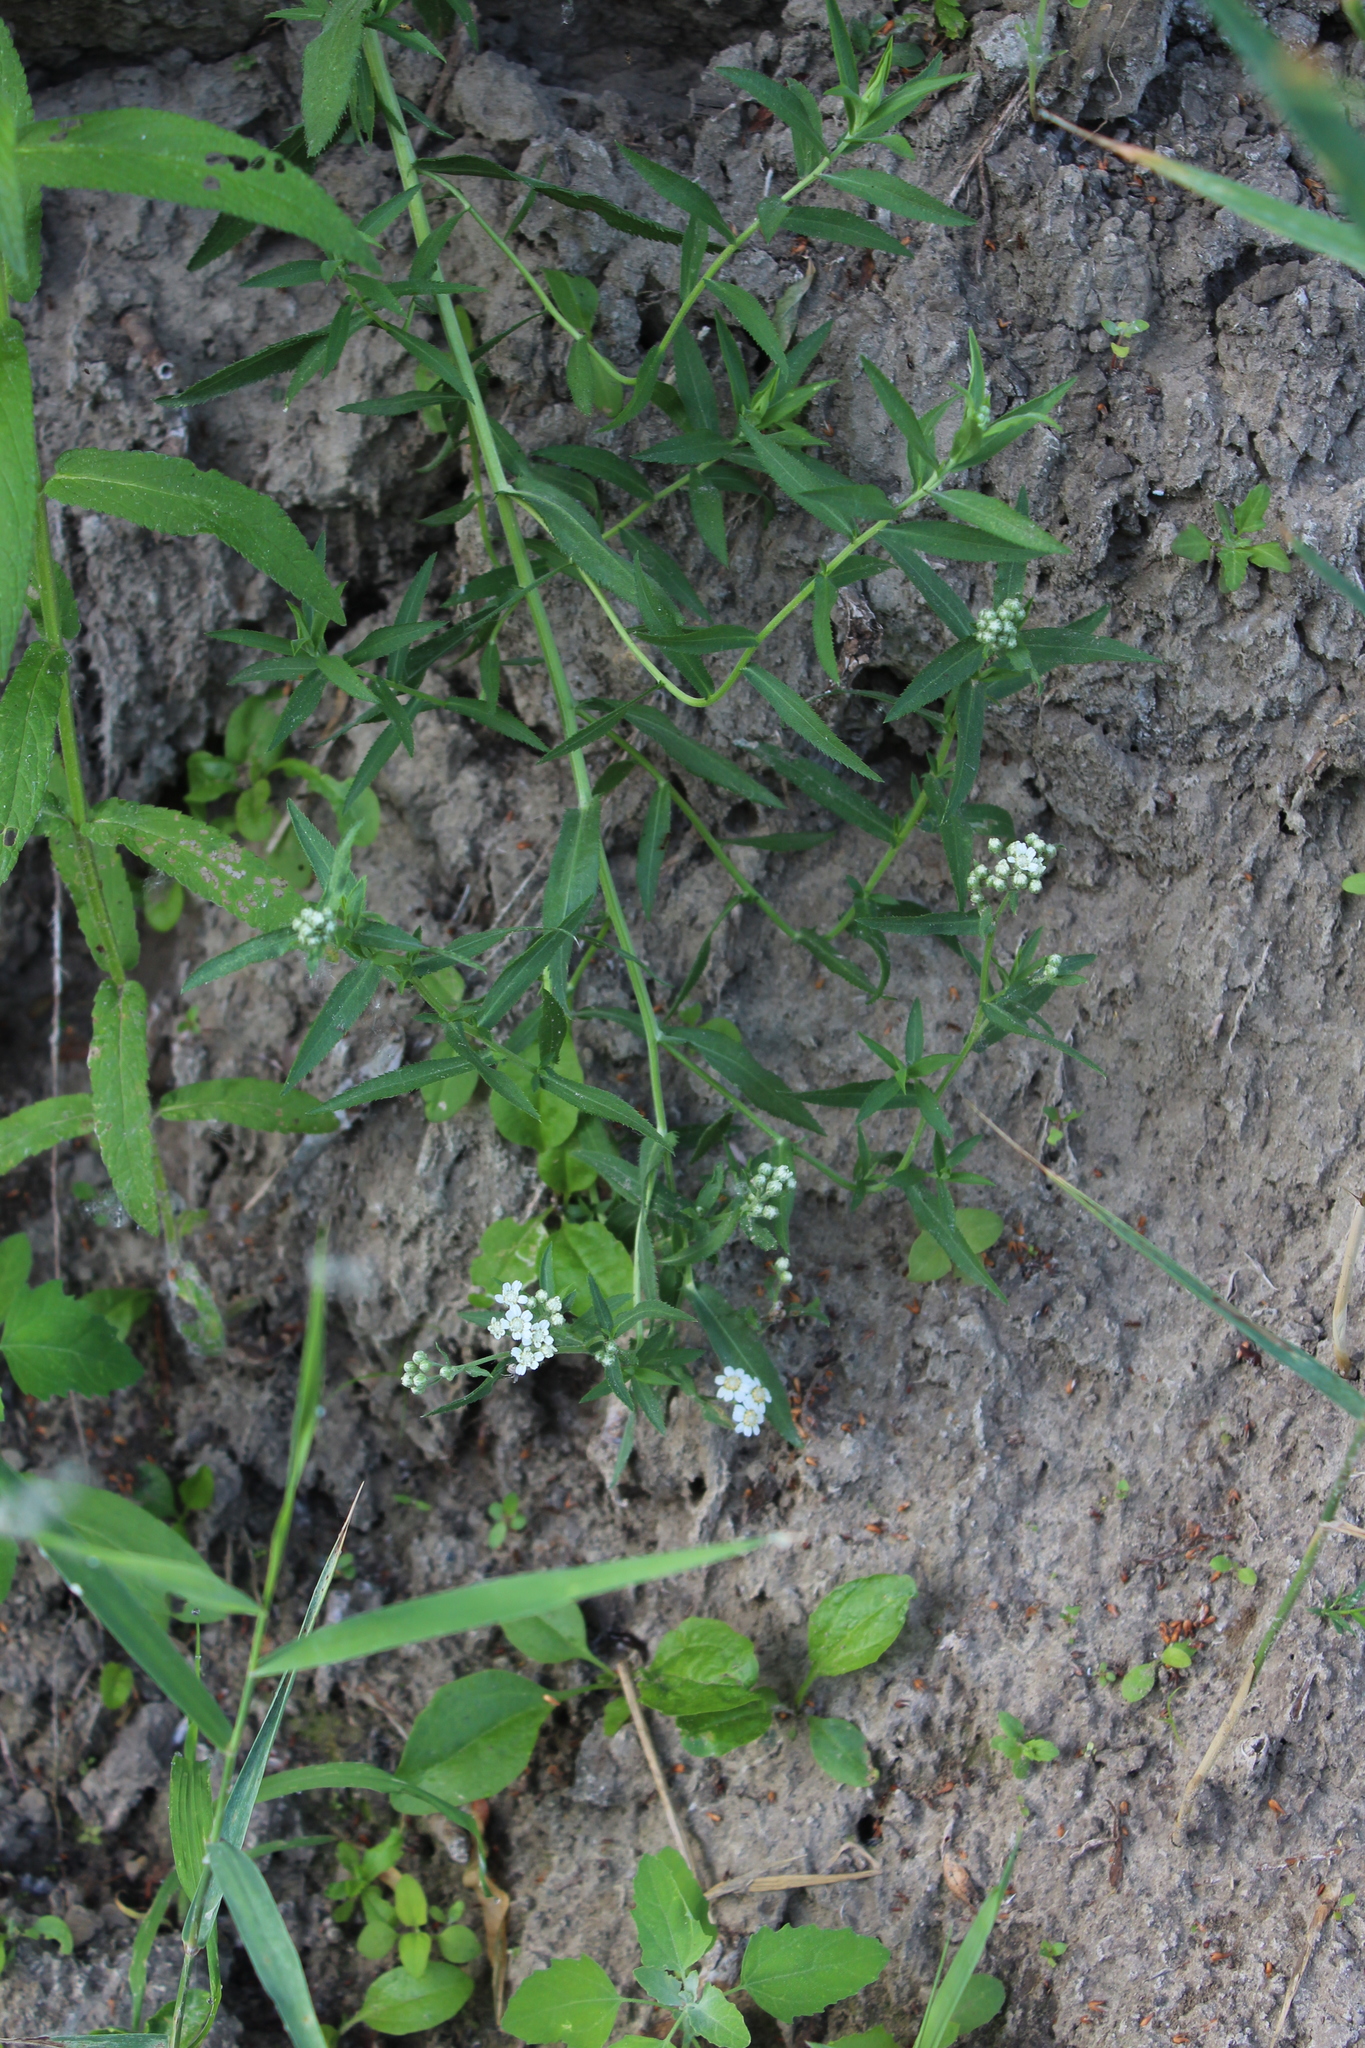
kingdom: Plantae
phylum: Tracheophyta
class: Magnoliopsida
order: Asterales
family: Asteraceae
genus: Achillea
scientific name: Achillea salicifolia
